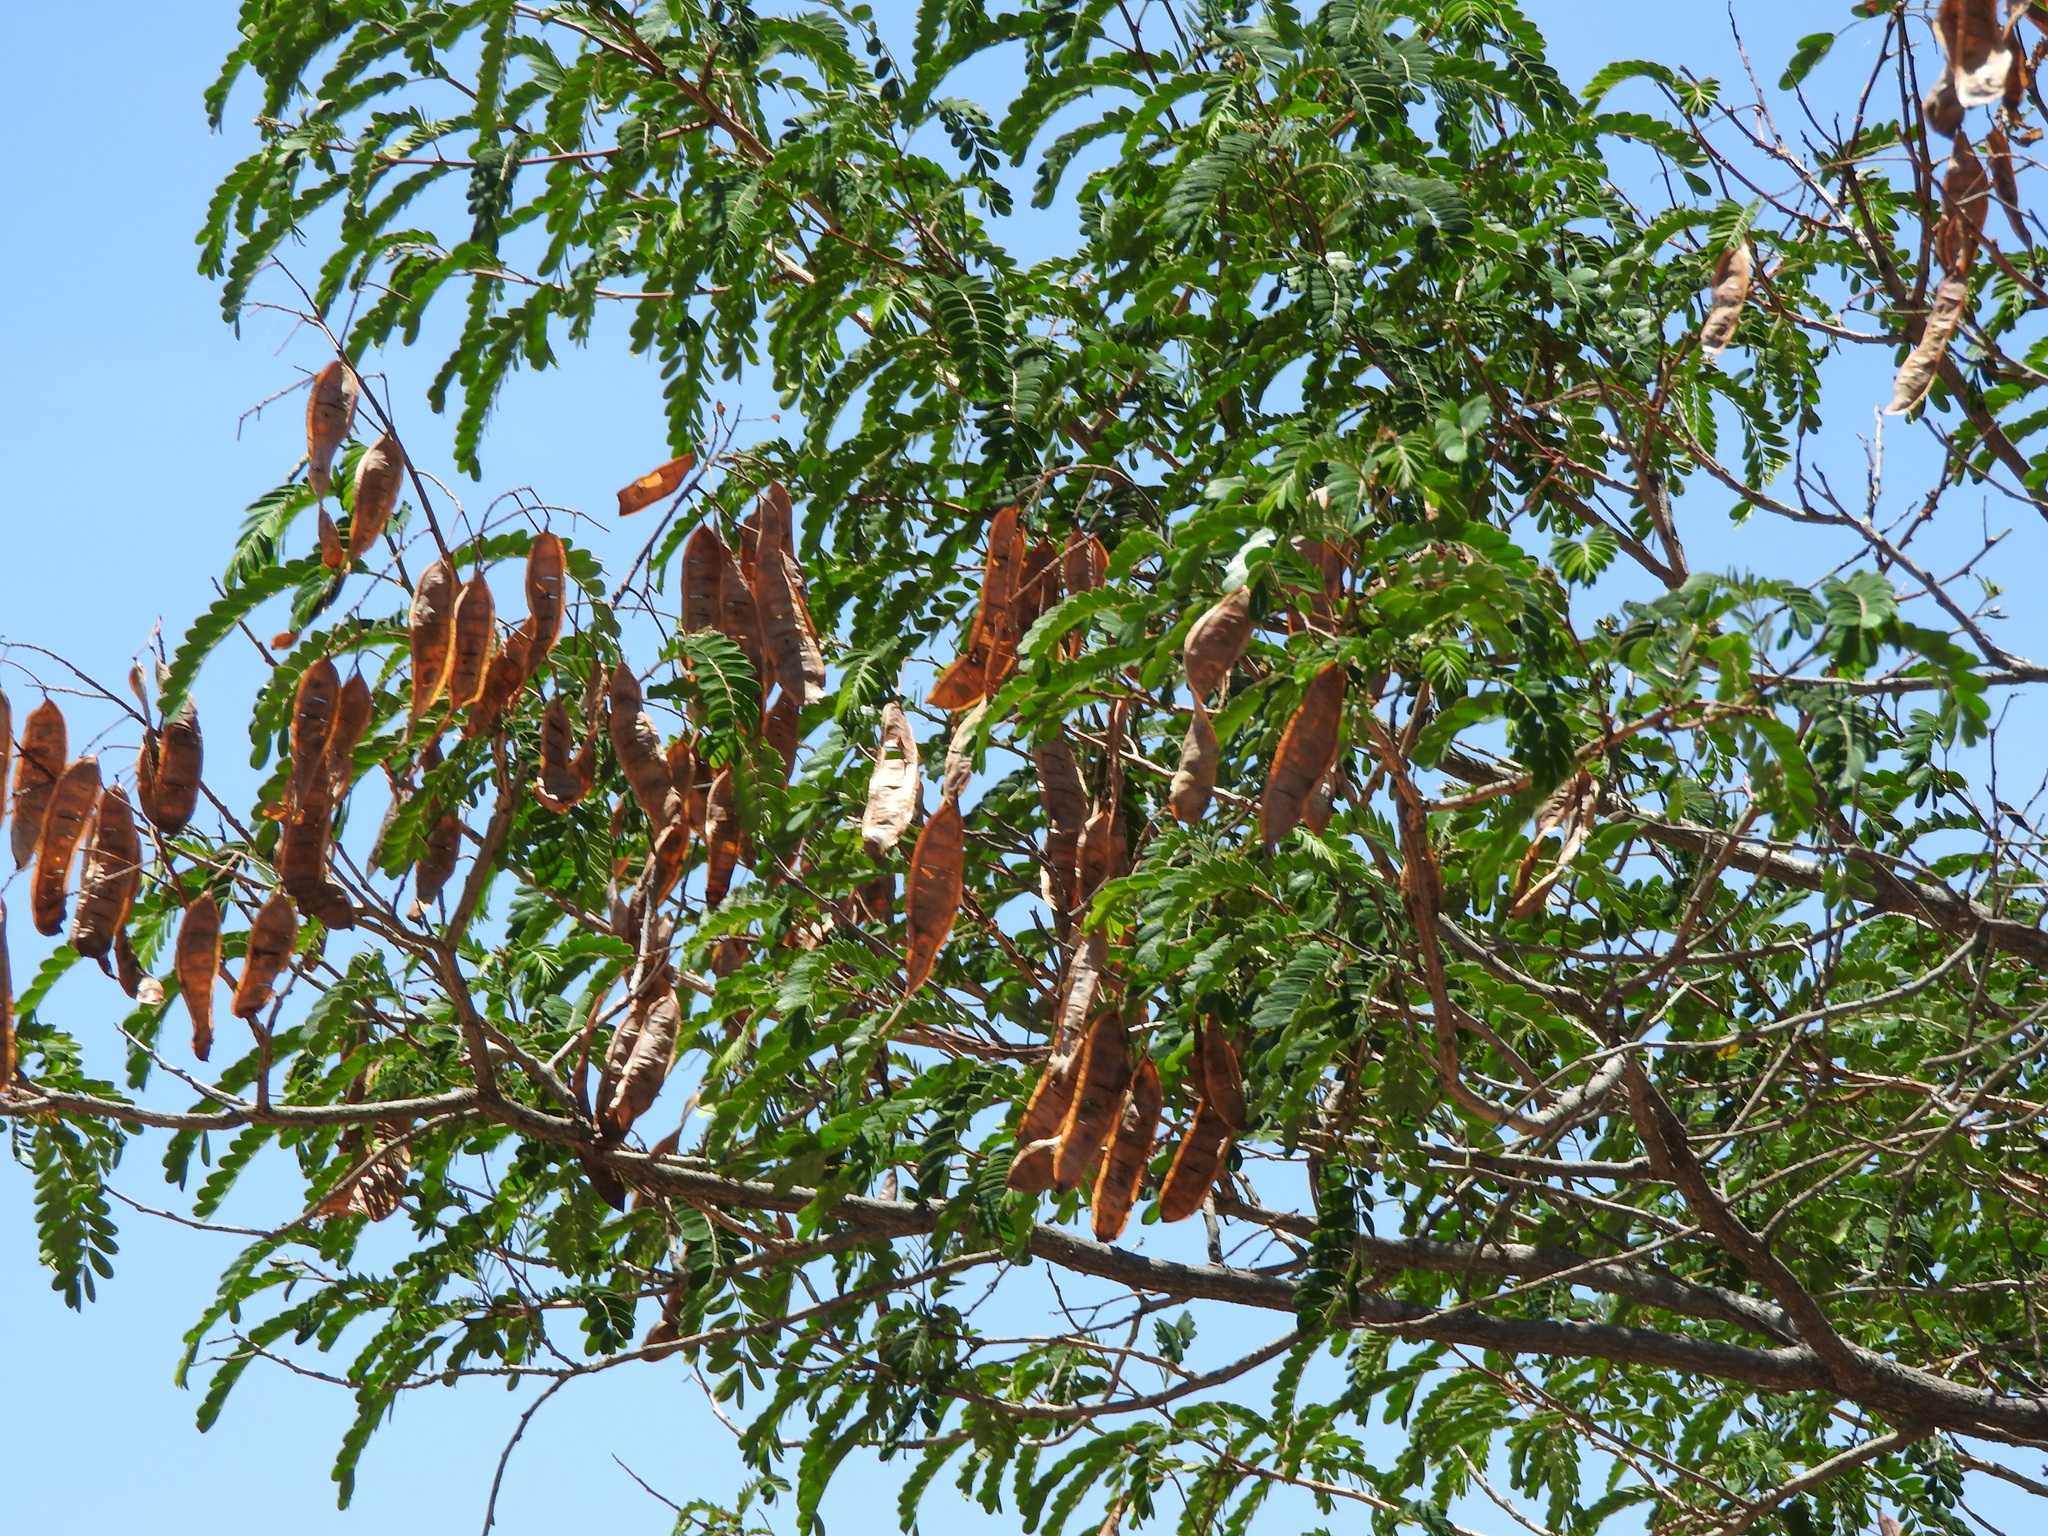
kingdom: Plantae
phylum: Tracheophyta
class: Magnoliopsida
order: Fabales
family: Fabaceae
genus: Albizia
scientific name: Albizia occidentalis
